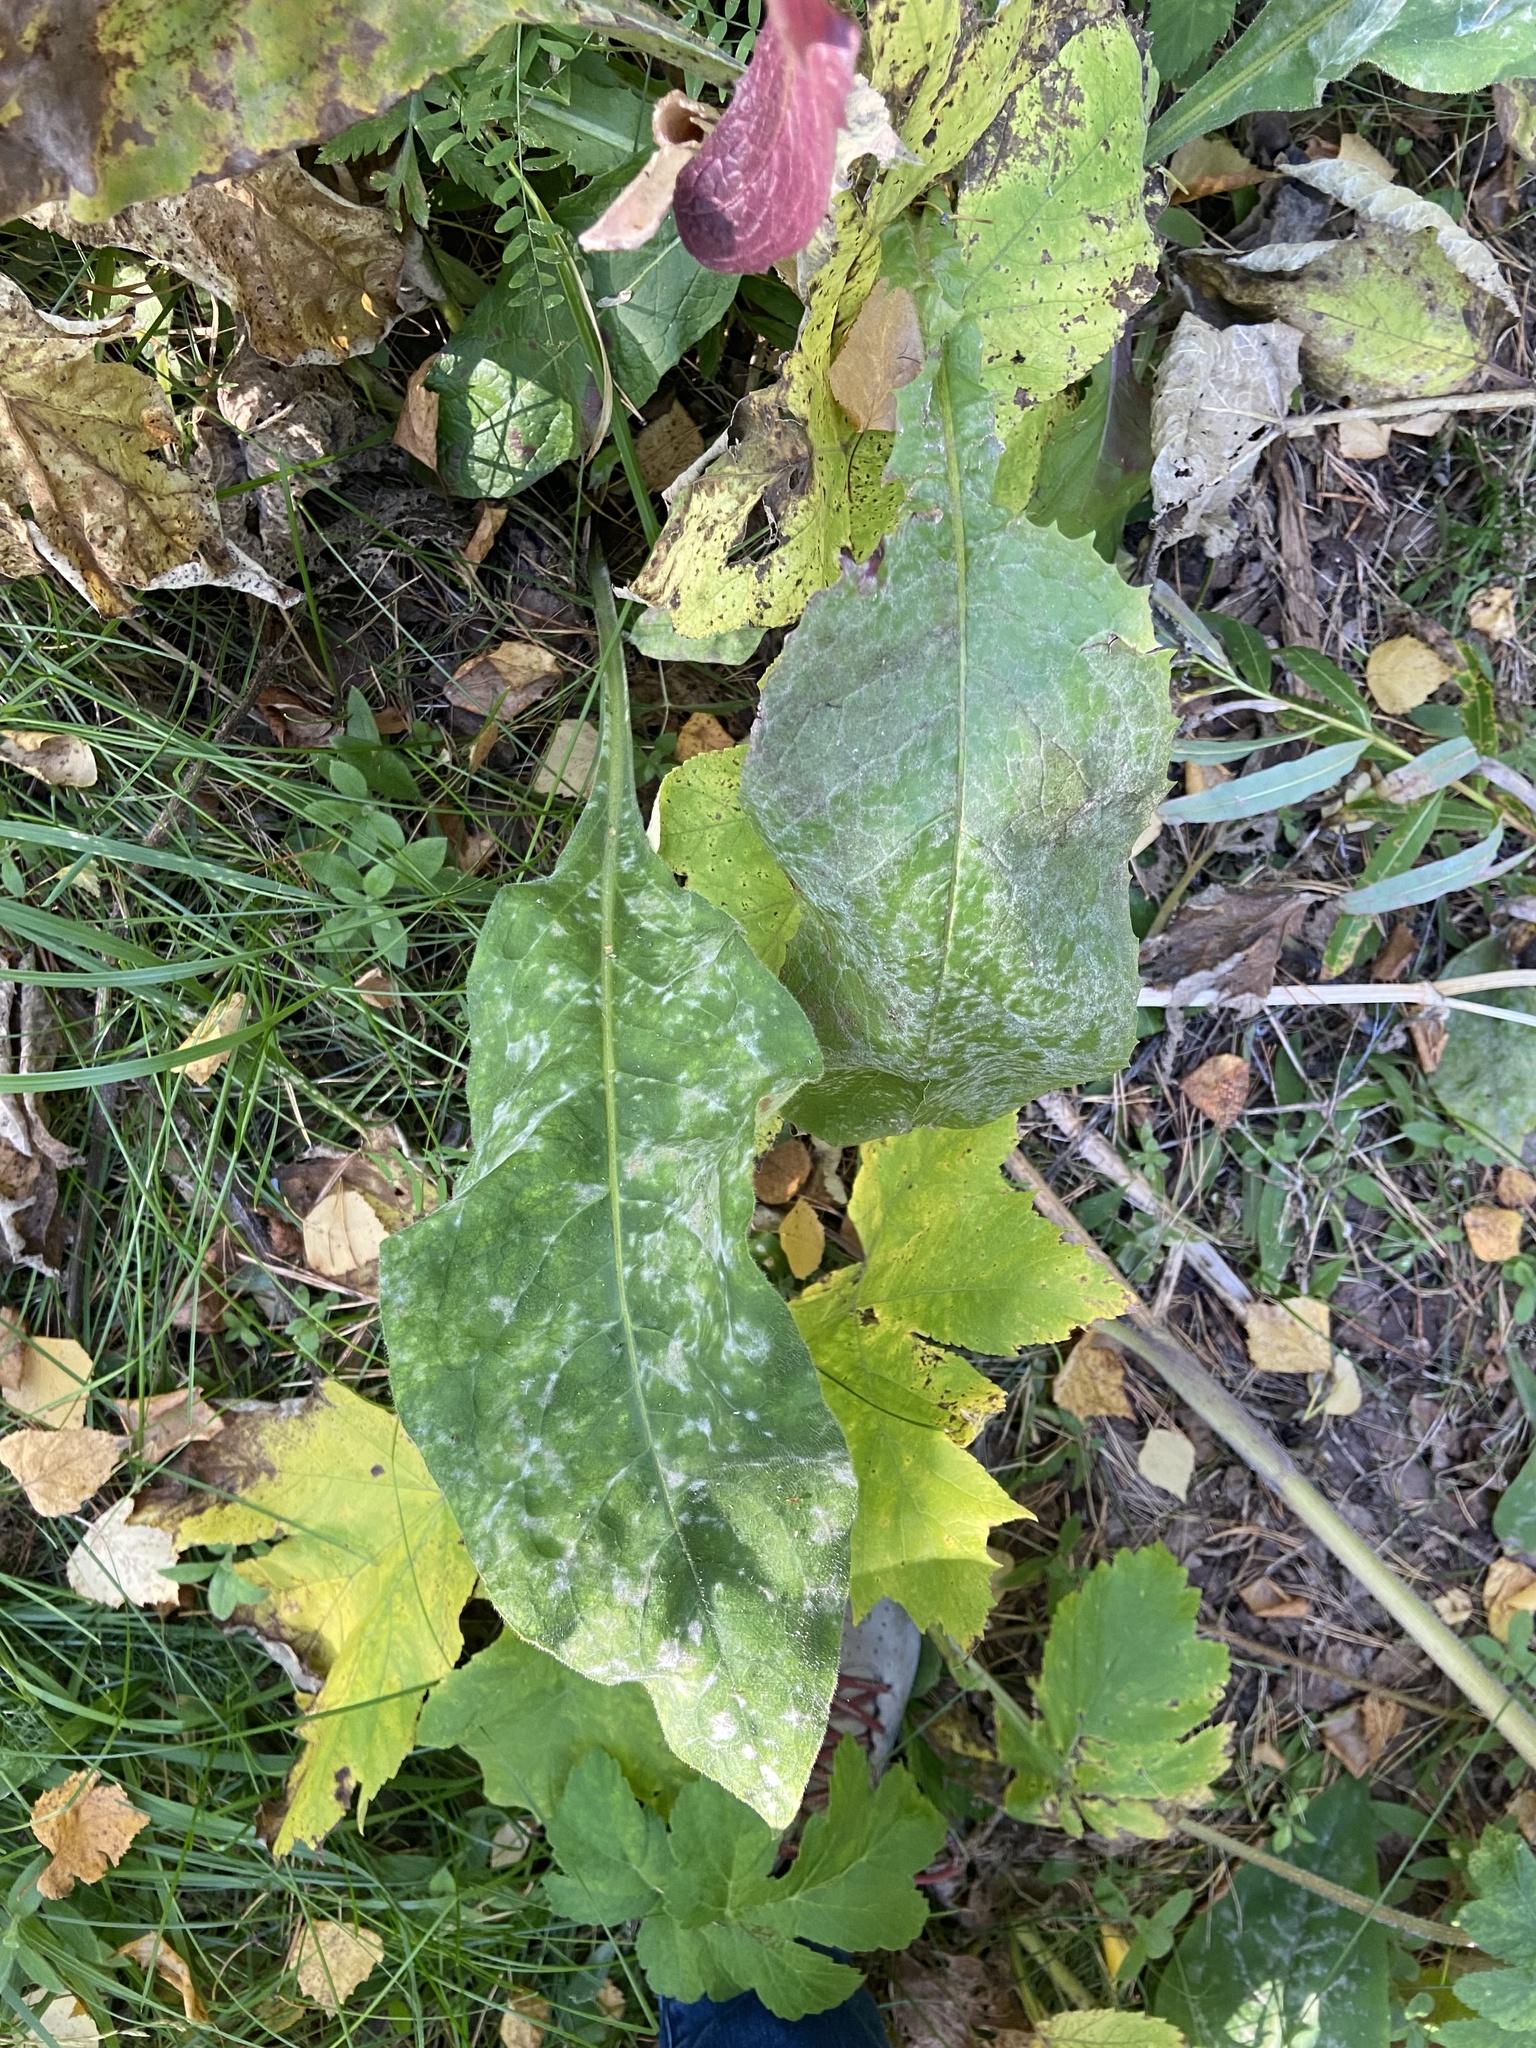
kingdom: Plantae
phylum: Tracheophyta
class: Magnoliopsida
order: Boraginales
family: Boraginaceae
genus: Pulmonaria
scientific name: Pulmonaria mollis
